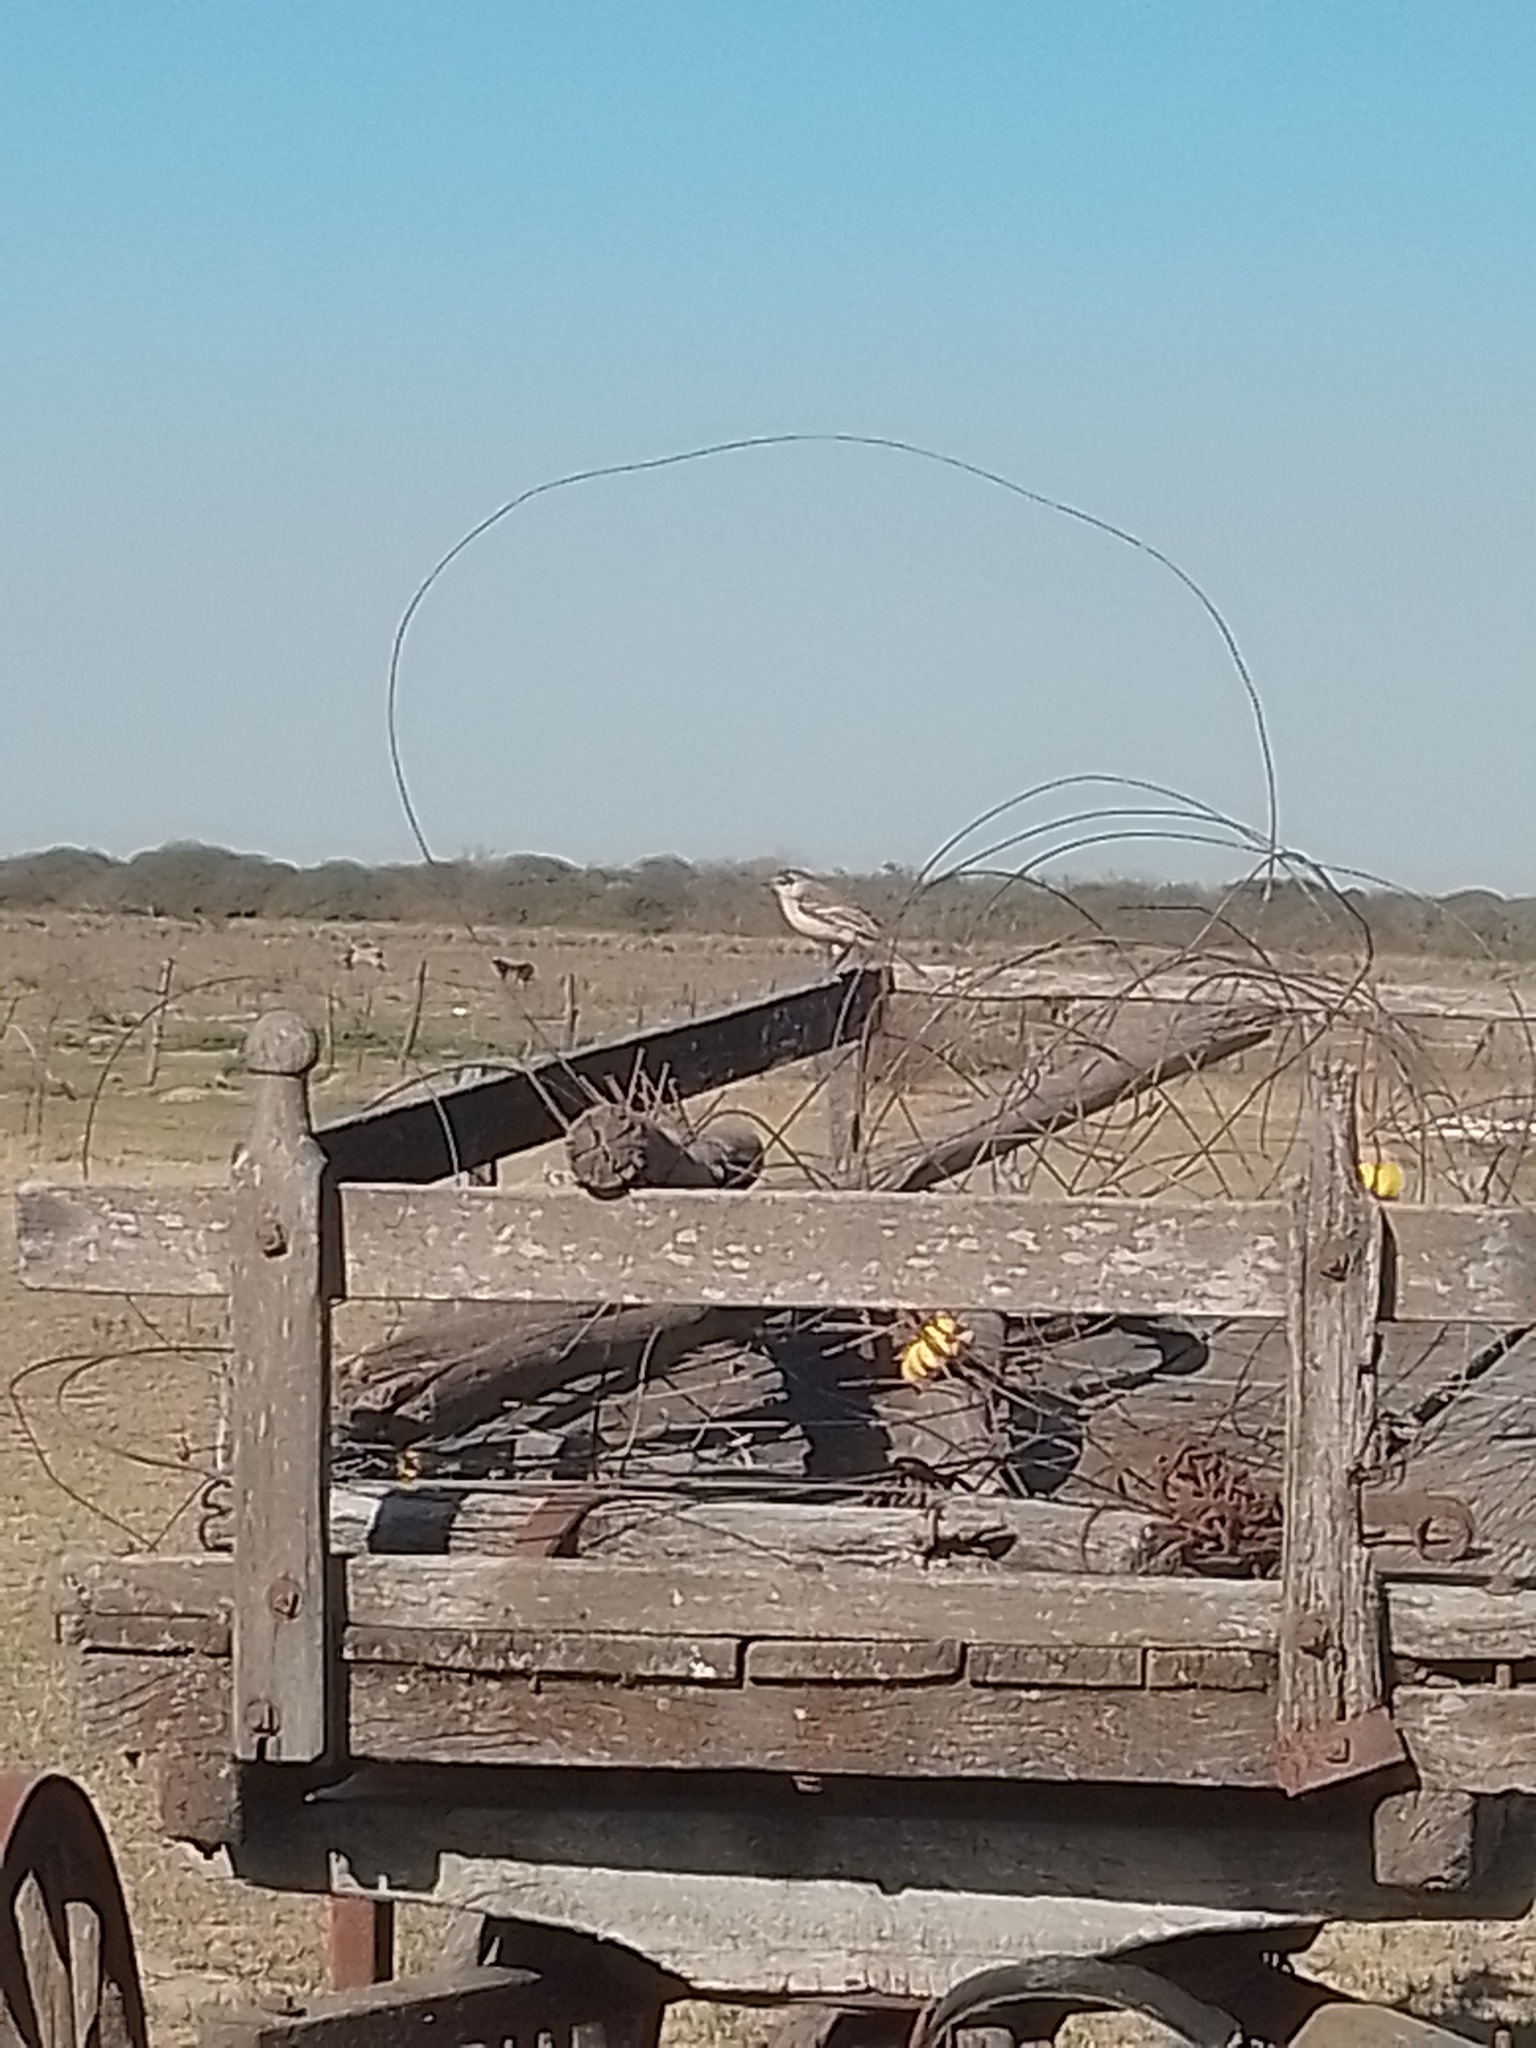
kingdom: Animalia
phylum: Chordata
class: Aves
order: Passeriformes
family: Mimidae
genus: Mimus
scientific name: Mimus saturninus
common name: Chalk-browed mockingbird
